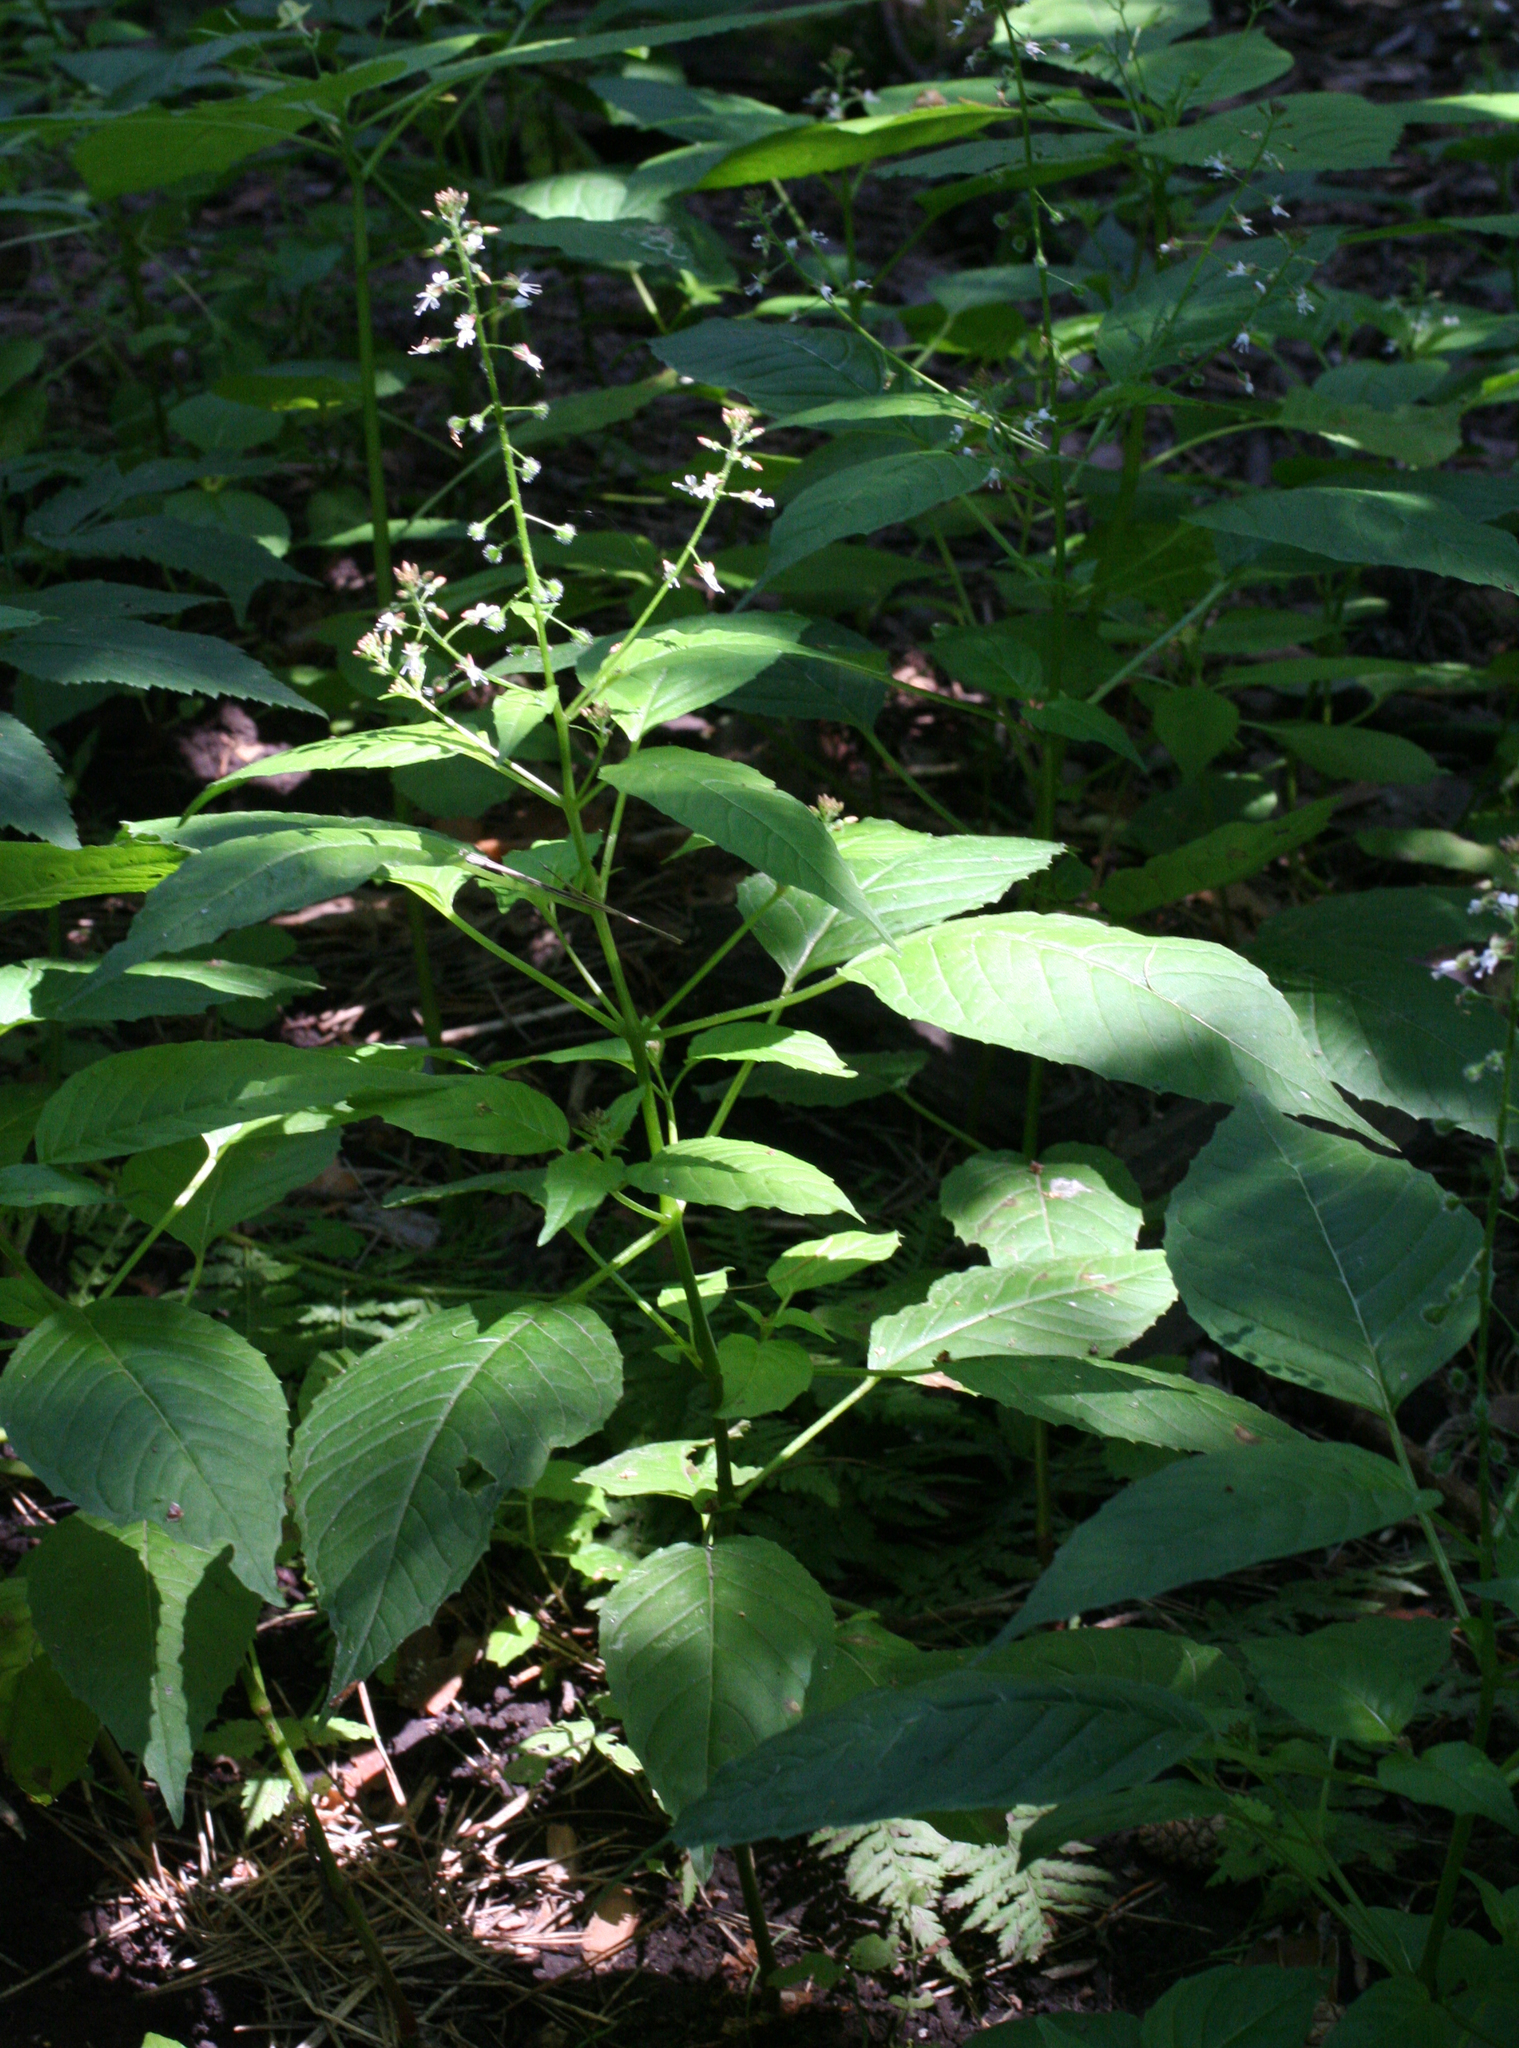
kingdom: Plantae
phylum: Tracheophyta
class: Magnoliopsida
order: Myrtales
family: Onagraceae
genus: Circaea
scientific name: Circaea canadensis
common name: Broad-leaved enchanter's nightshade
